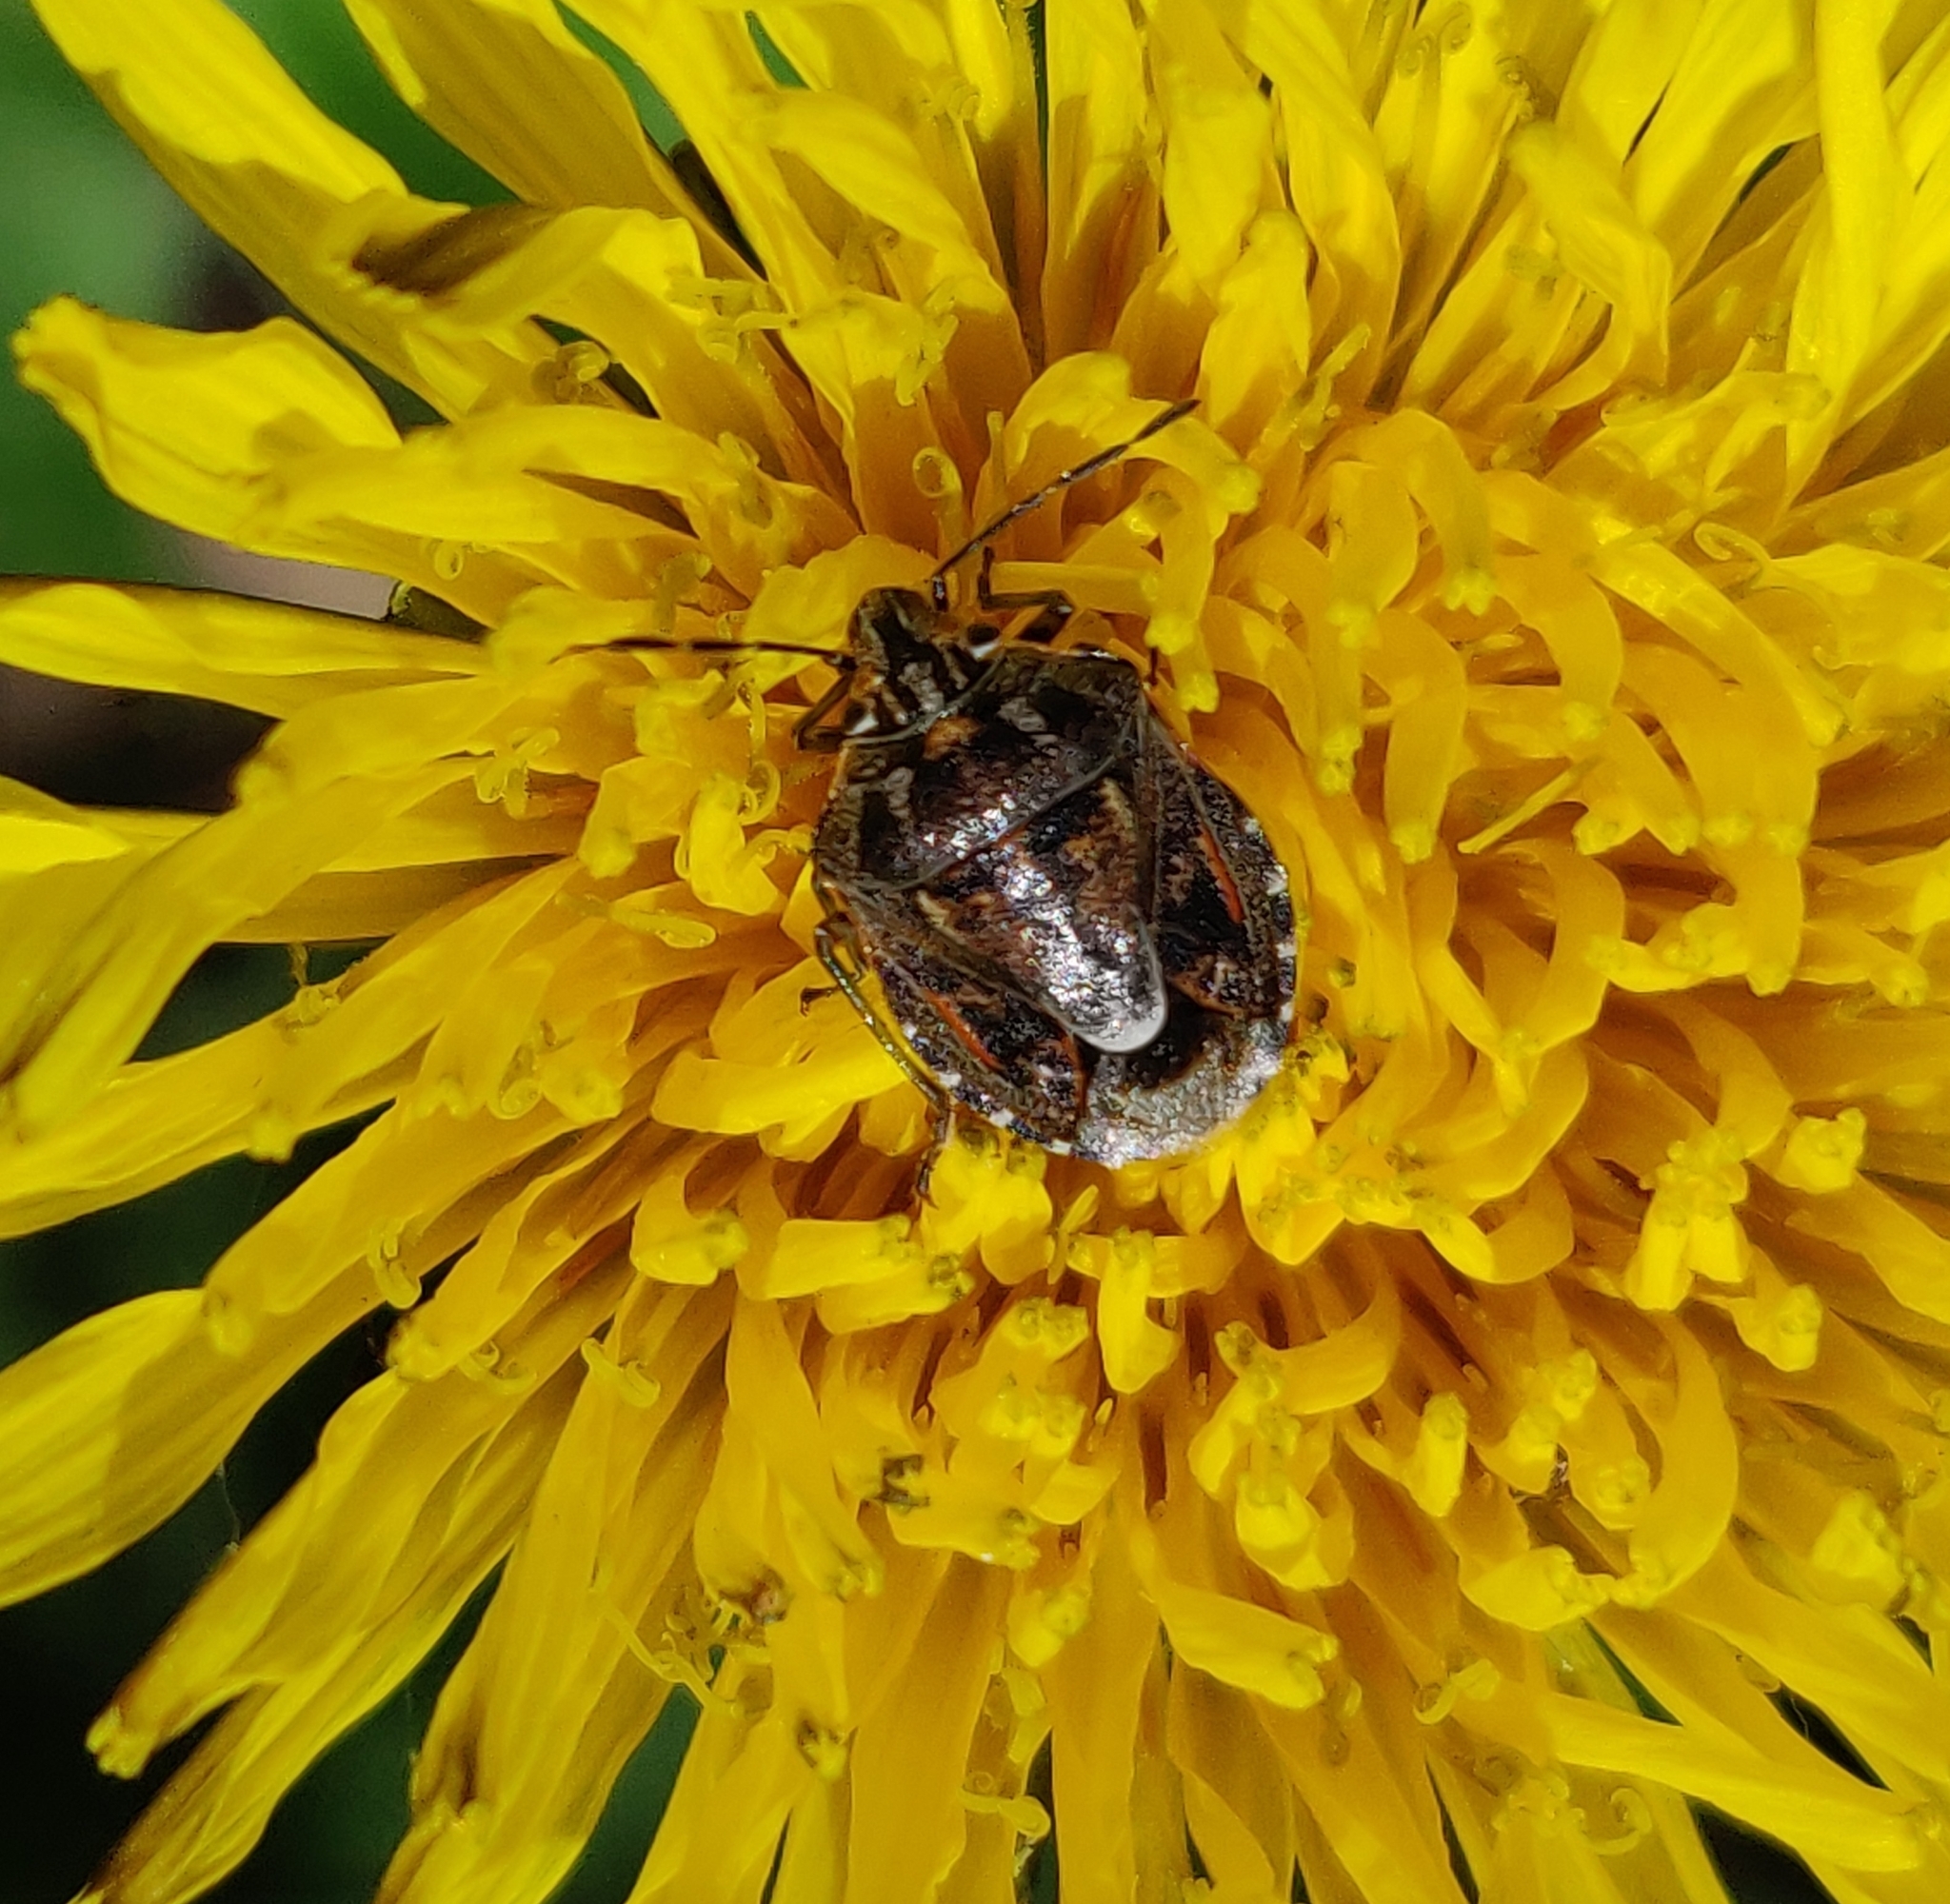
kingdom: Animalia
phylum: Arthropoda
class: Insecta
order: Hemiptera
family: Pentatomidae
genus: Holcogaster
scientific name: Holcogaster fibulata
